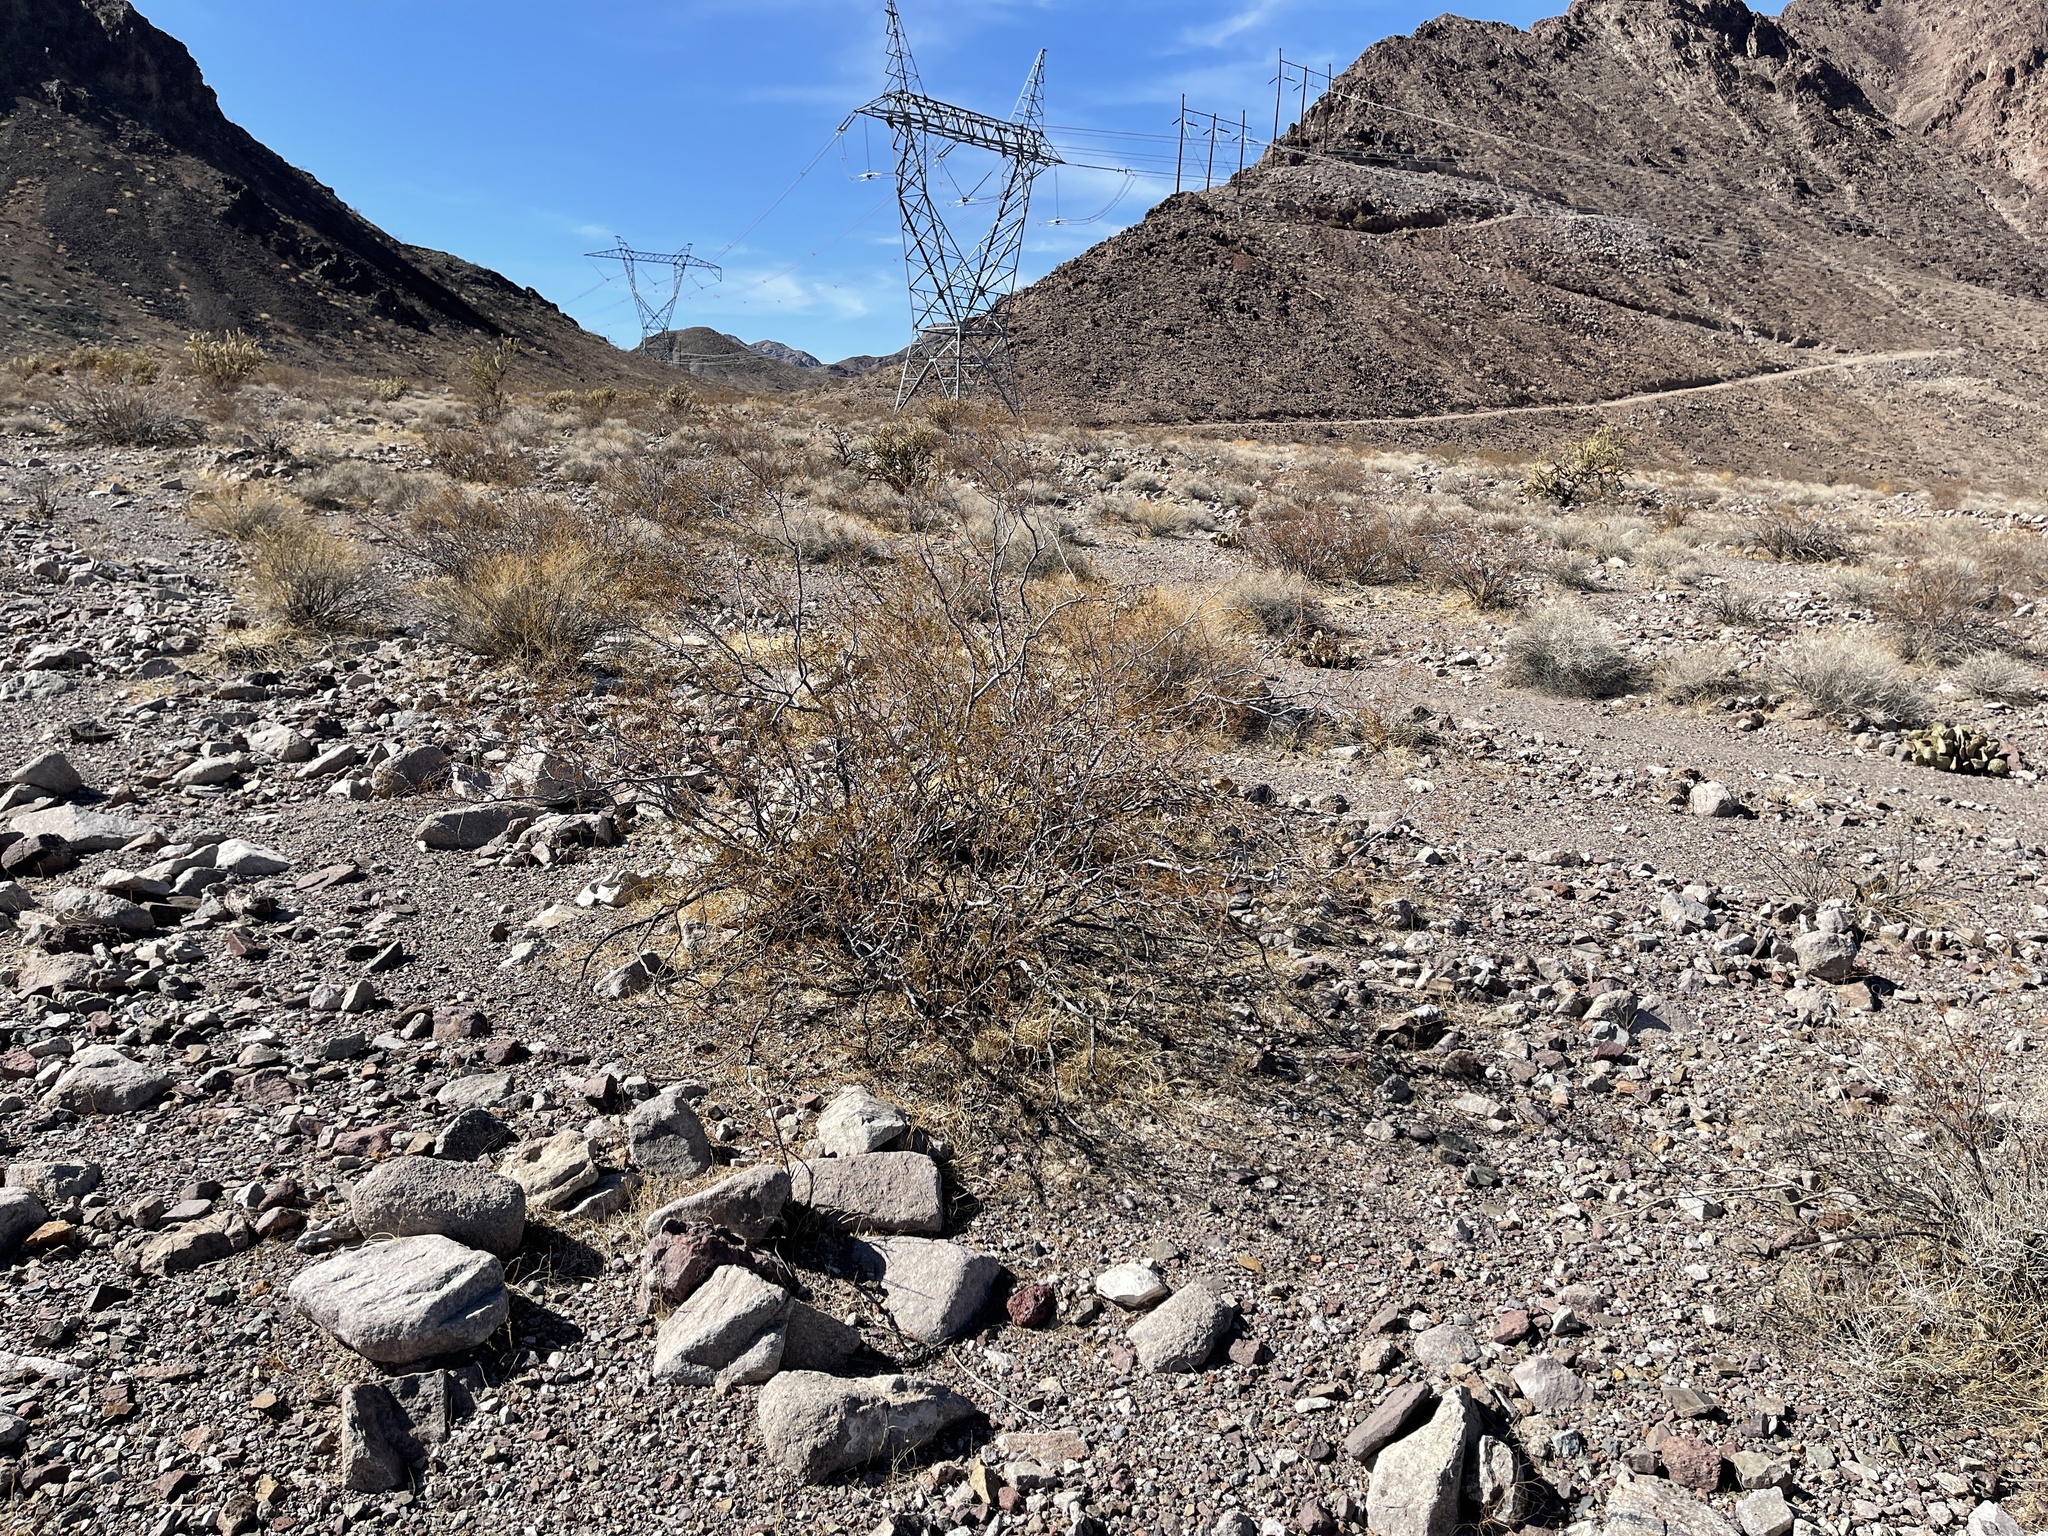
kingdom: Plantae
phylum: Tracheophyta
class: Magnoliopsida
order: Zygophyllales
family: Zygophyllaceae
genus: Larrea
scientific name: Larrea tridentata
